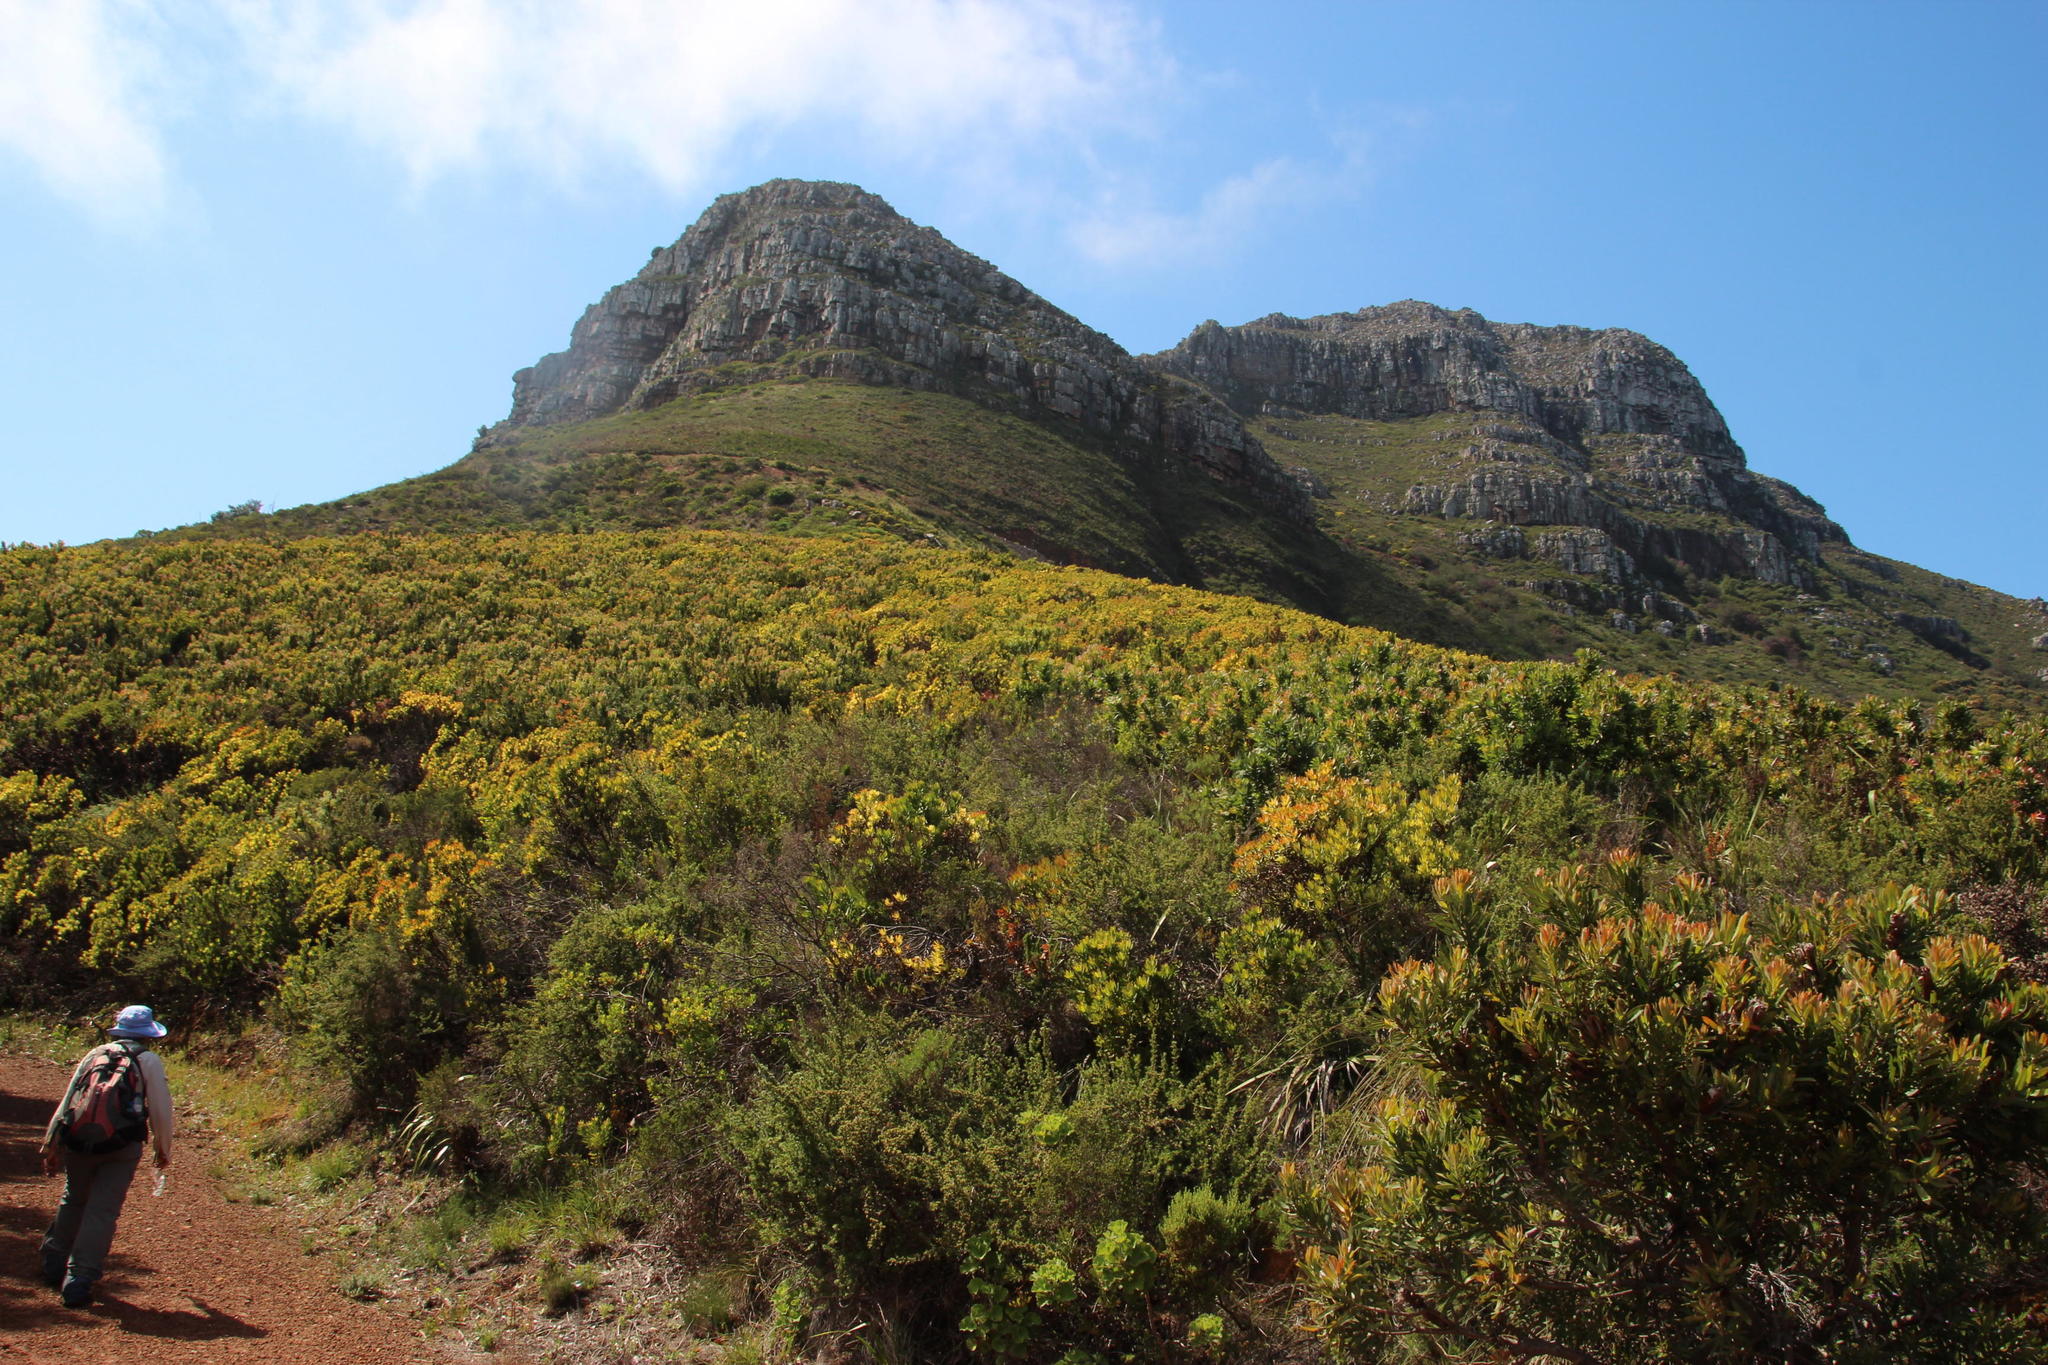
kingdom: Plantae
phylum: Tracheophyta
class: Magnoliopsida
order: Proteales
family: Proteaceae
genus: Leucadendron
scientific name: Leucadendron sessile
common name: Western sunbush
